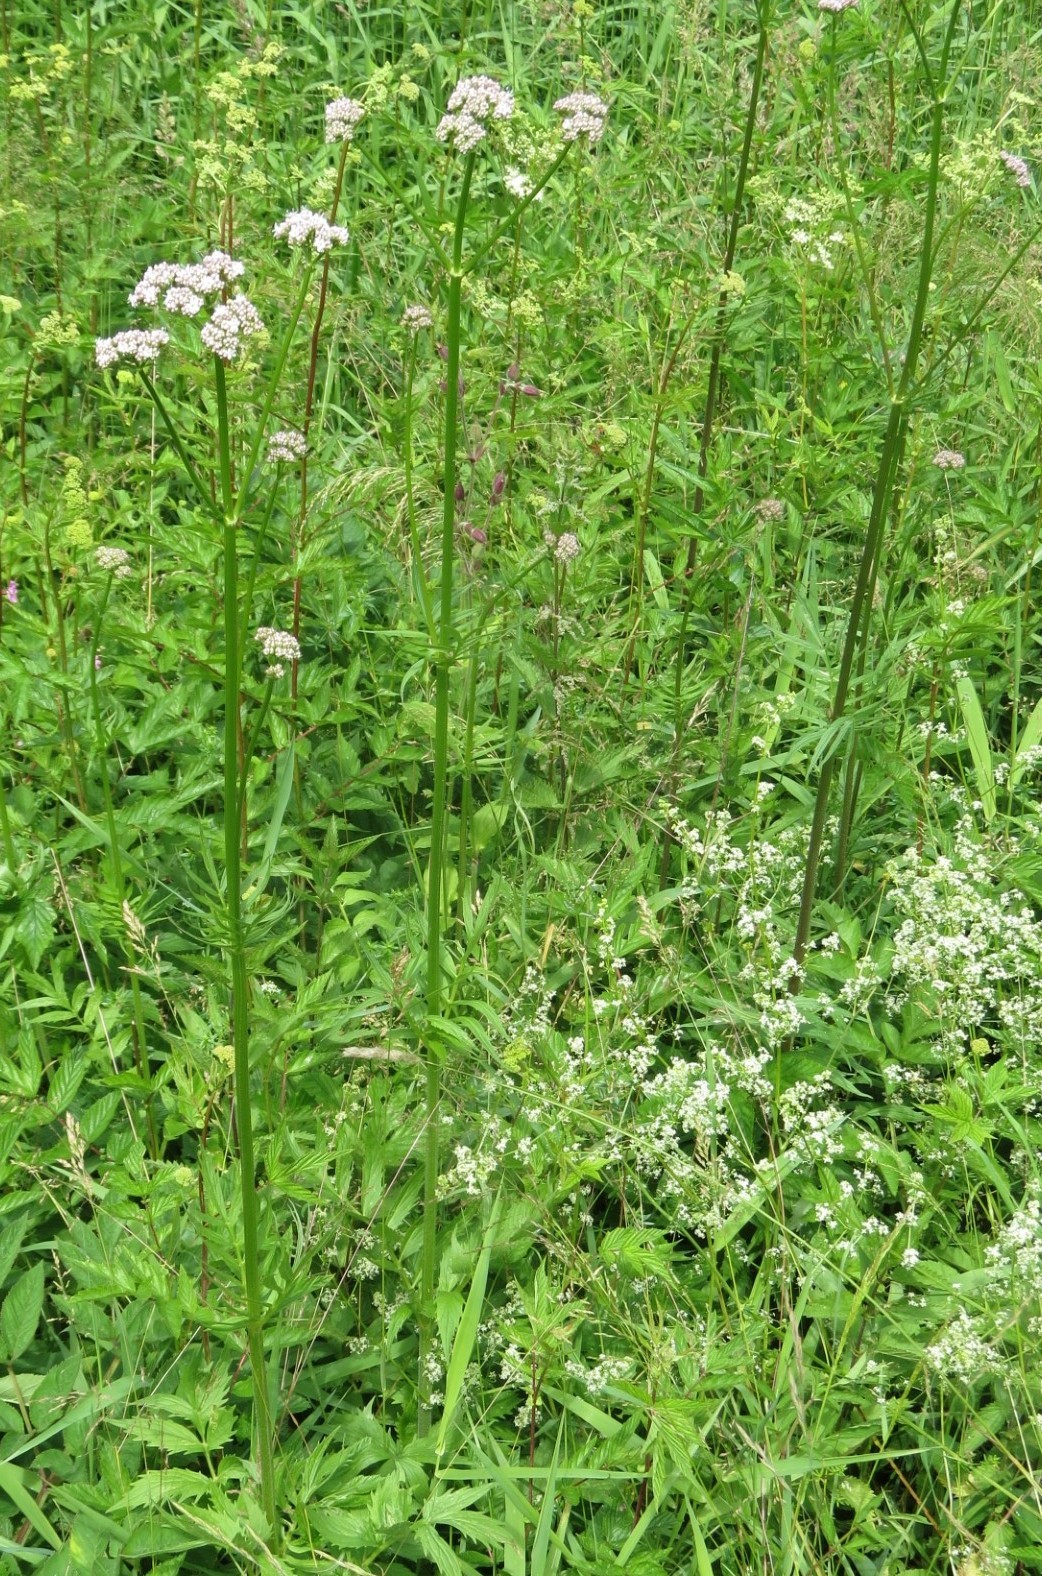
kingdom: Plantae
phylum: Tracheophyta
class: Magnoliopsida
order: Dipsacales
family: Caprifoliaceae
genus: Valeriana
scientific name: Valeriana officinalis
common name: Common valerian
